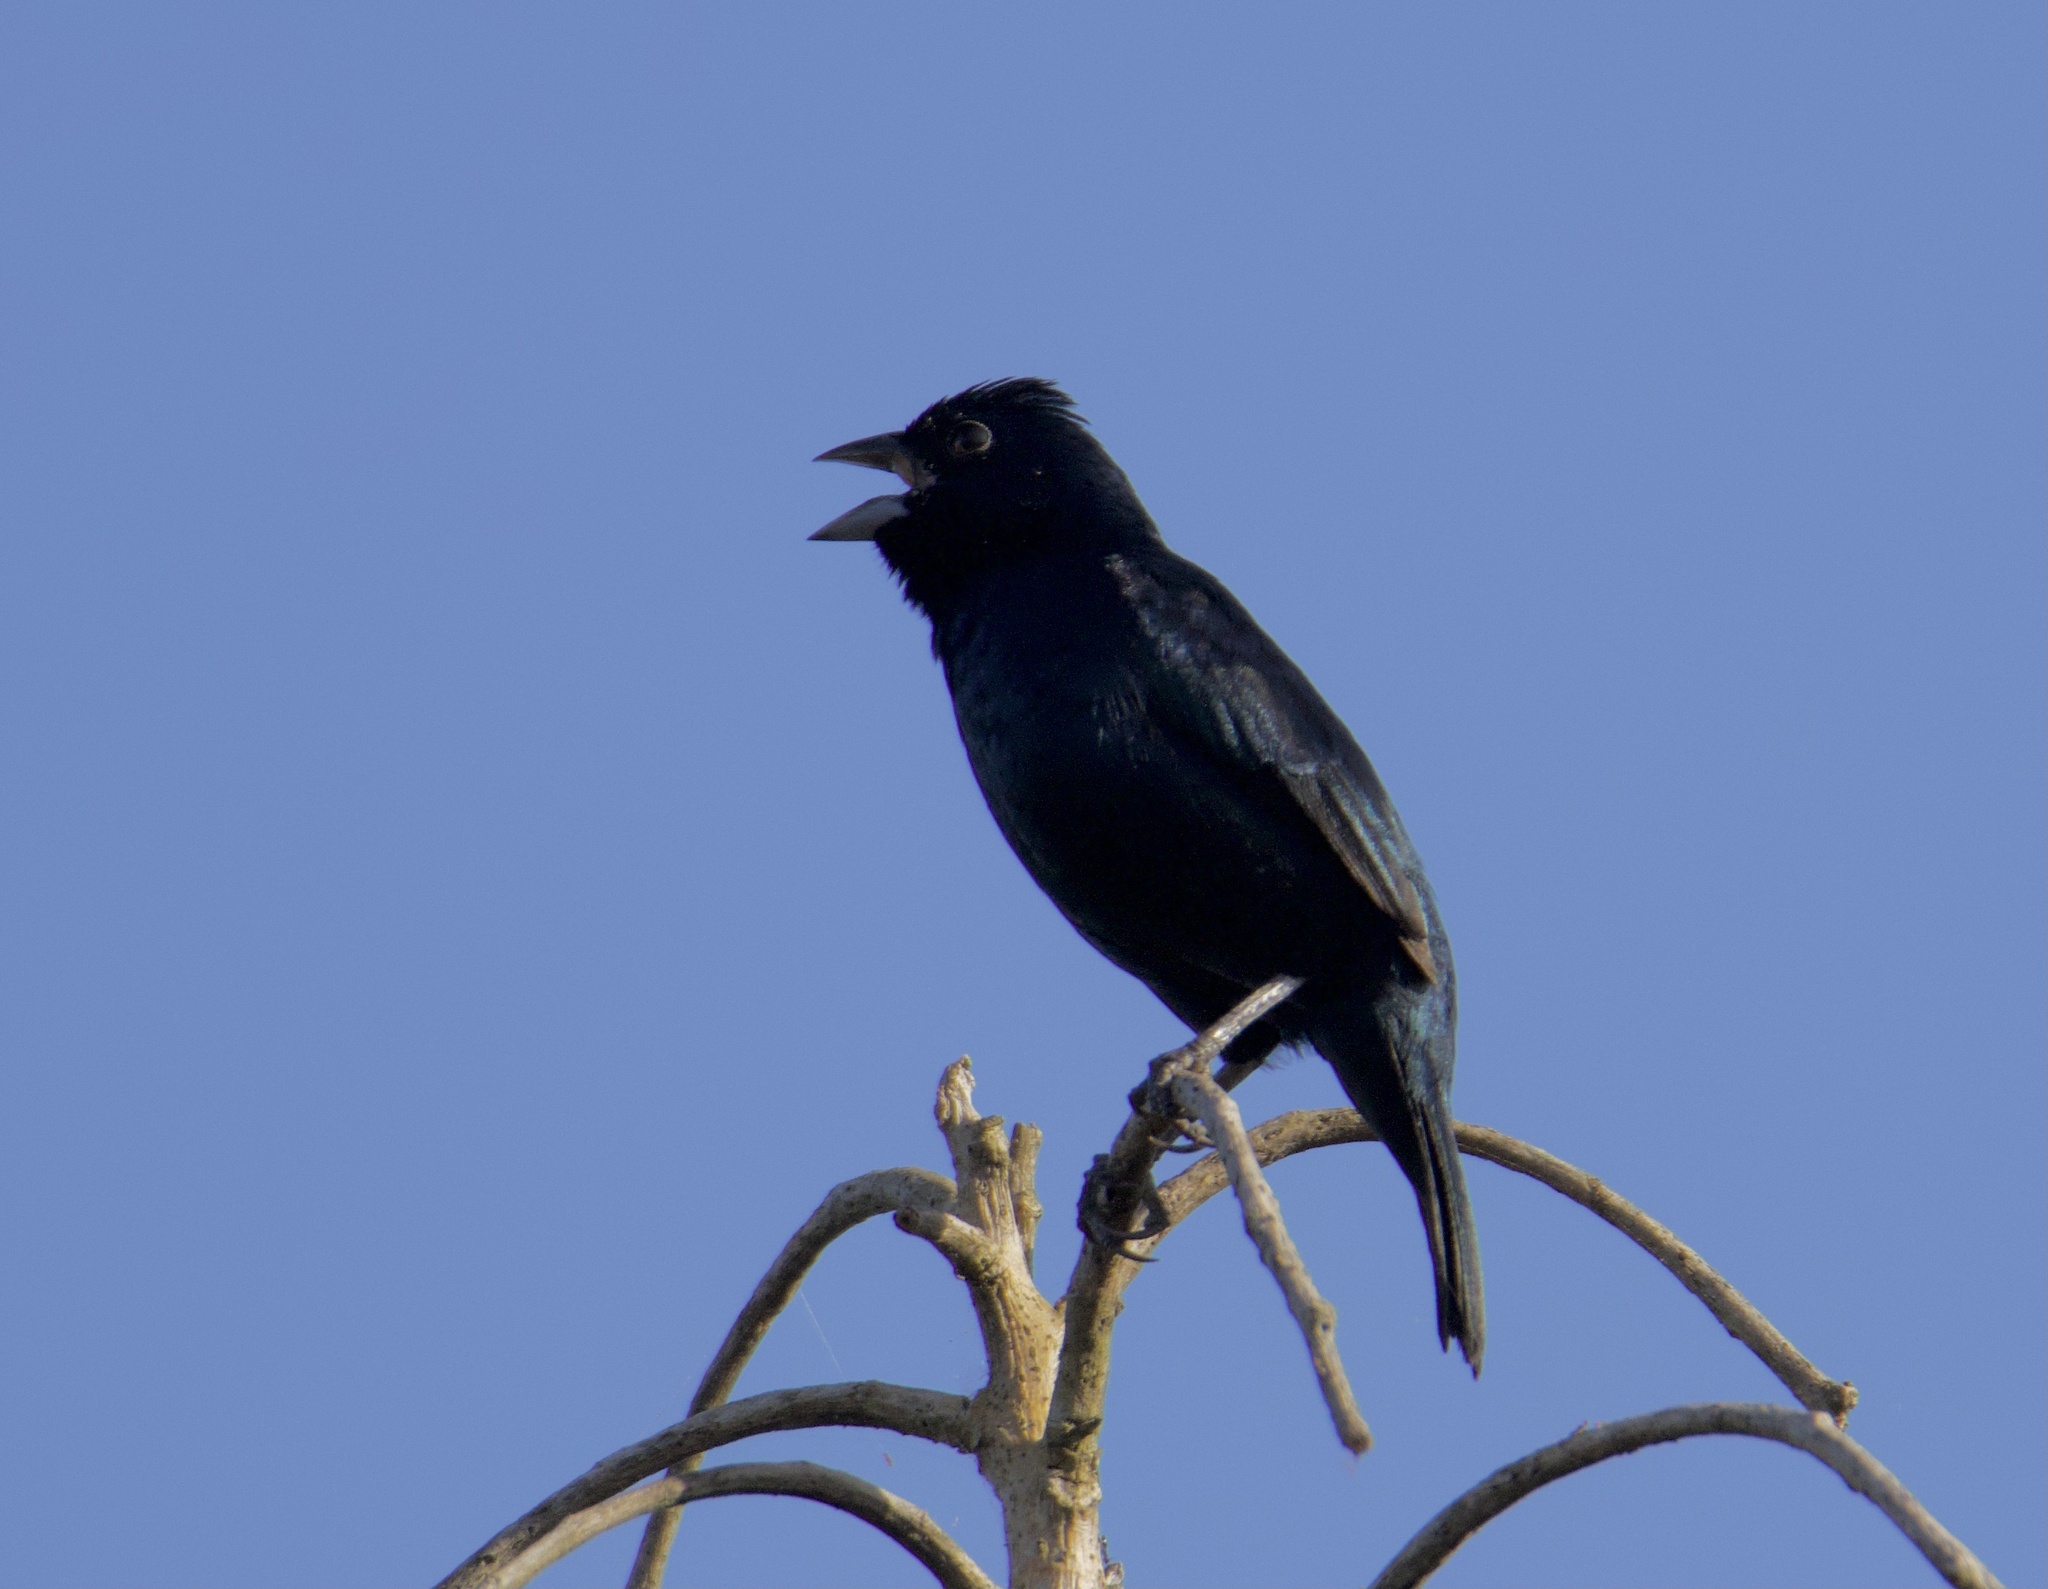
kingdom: Animalia
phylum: Chordata
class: Aves
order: Passeriformes
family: Thraupidae
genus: Volatinia
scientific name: Volatinia jacarina
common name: Blue-black grassquit
